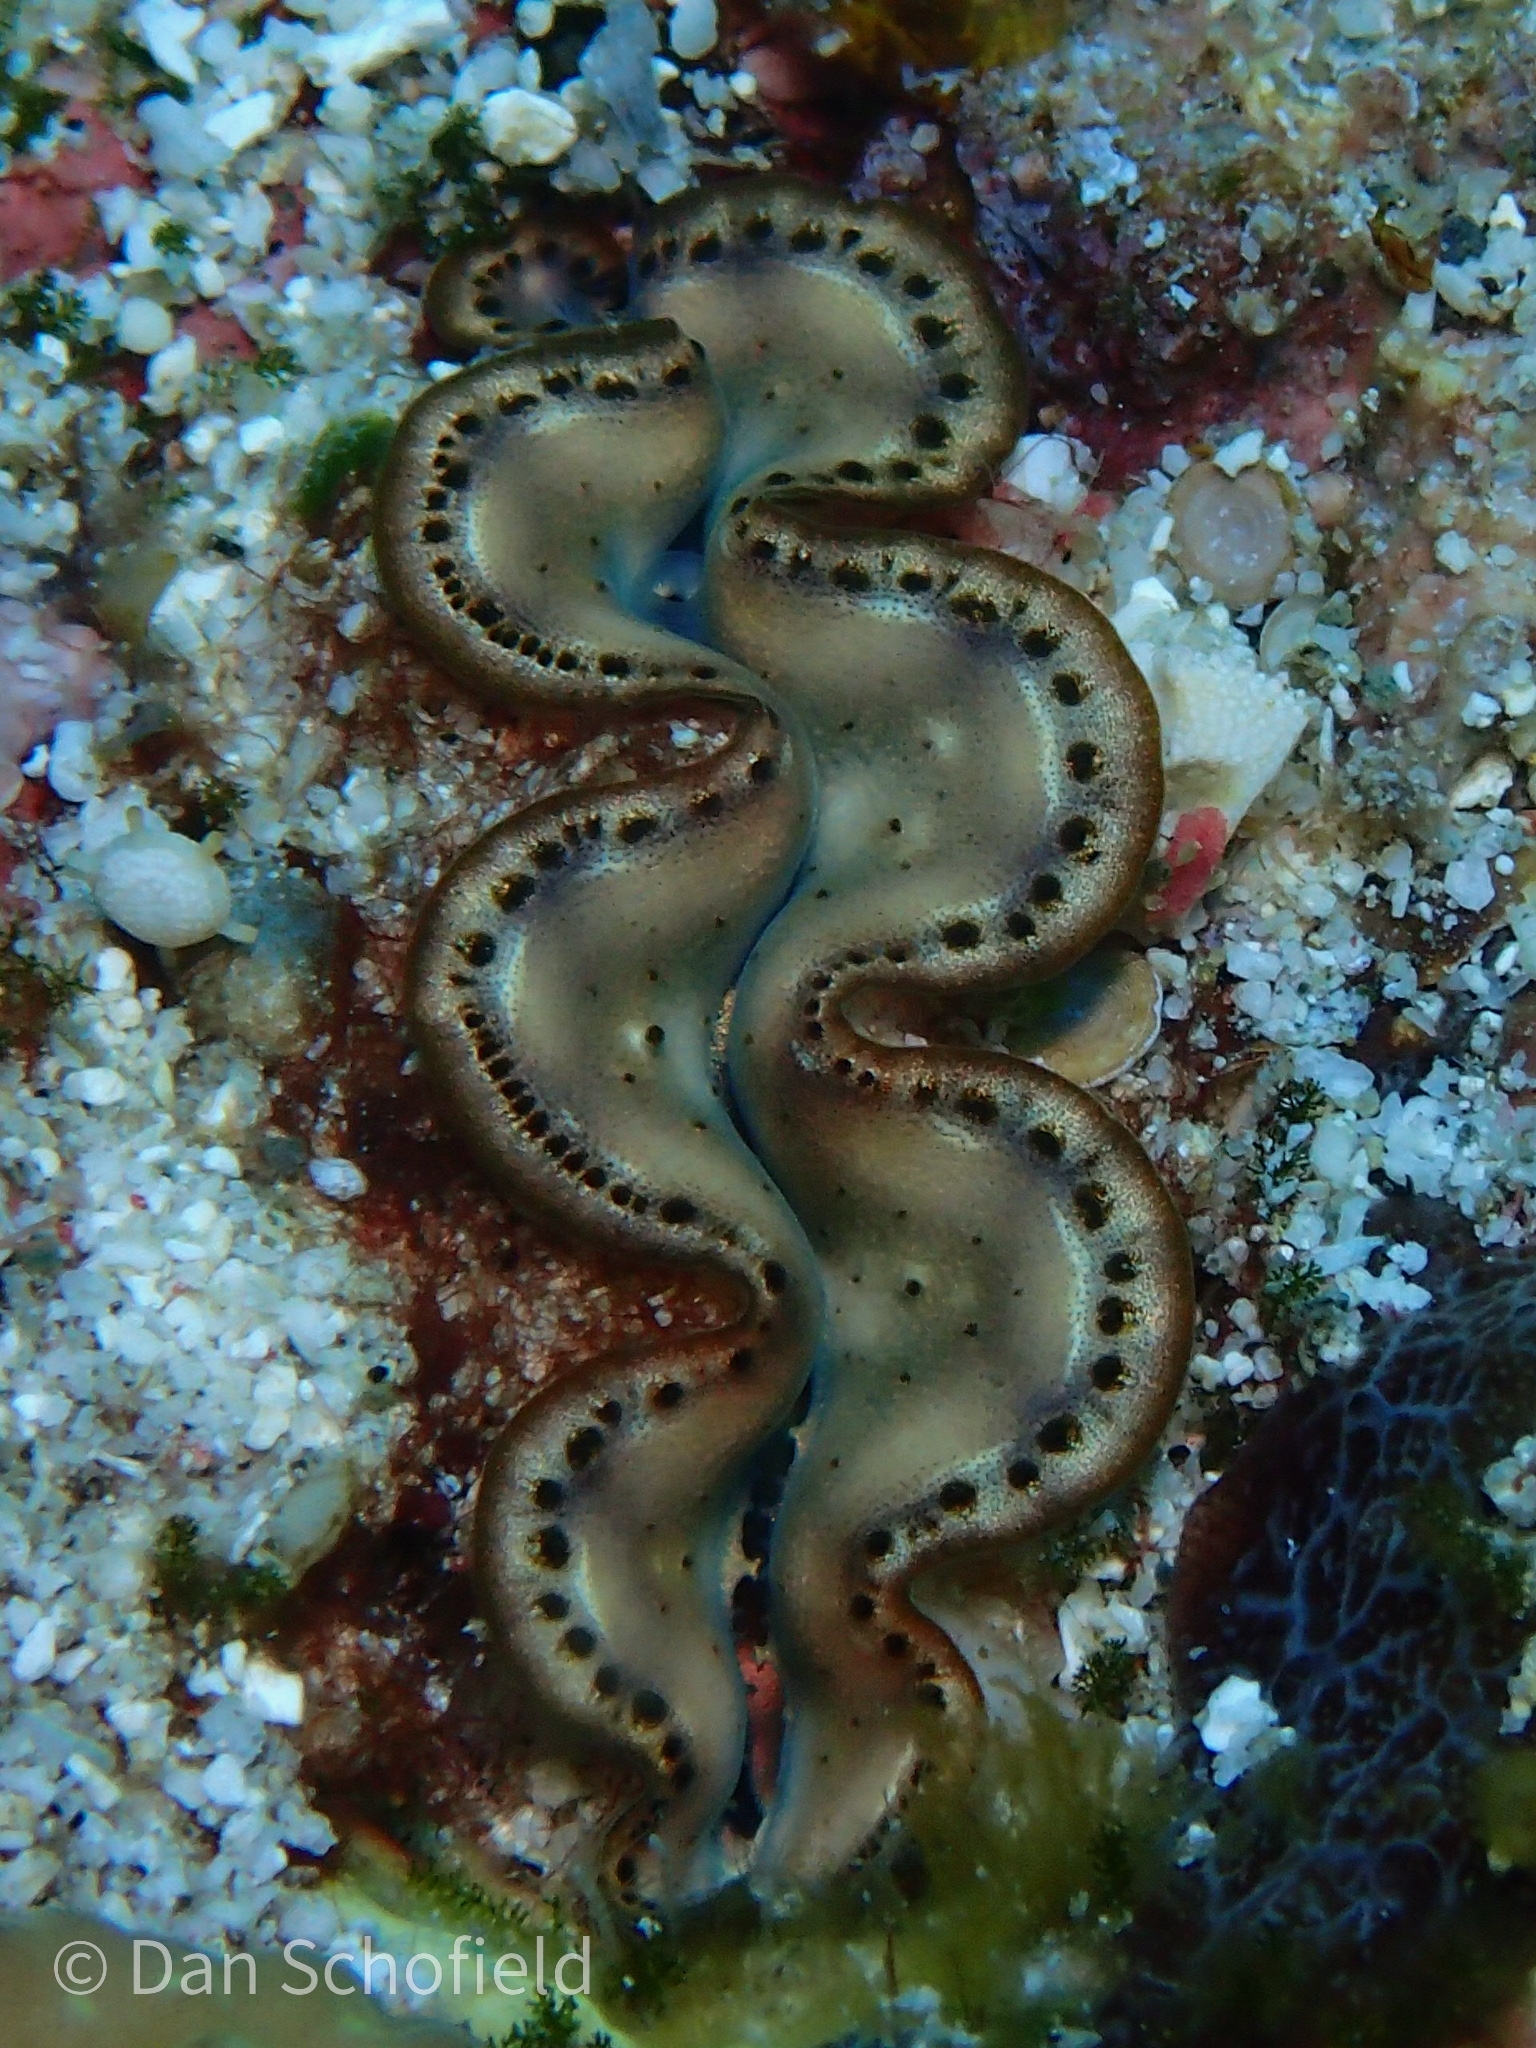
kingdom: Animalia
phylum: Mollusca
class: Bivalvia
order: Cardiida
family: Cardiidae
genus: Tridacna
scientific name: Tridacna maxima
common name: Small giant clam
